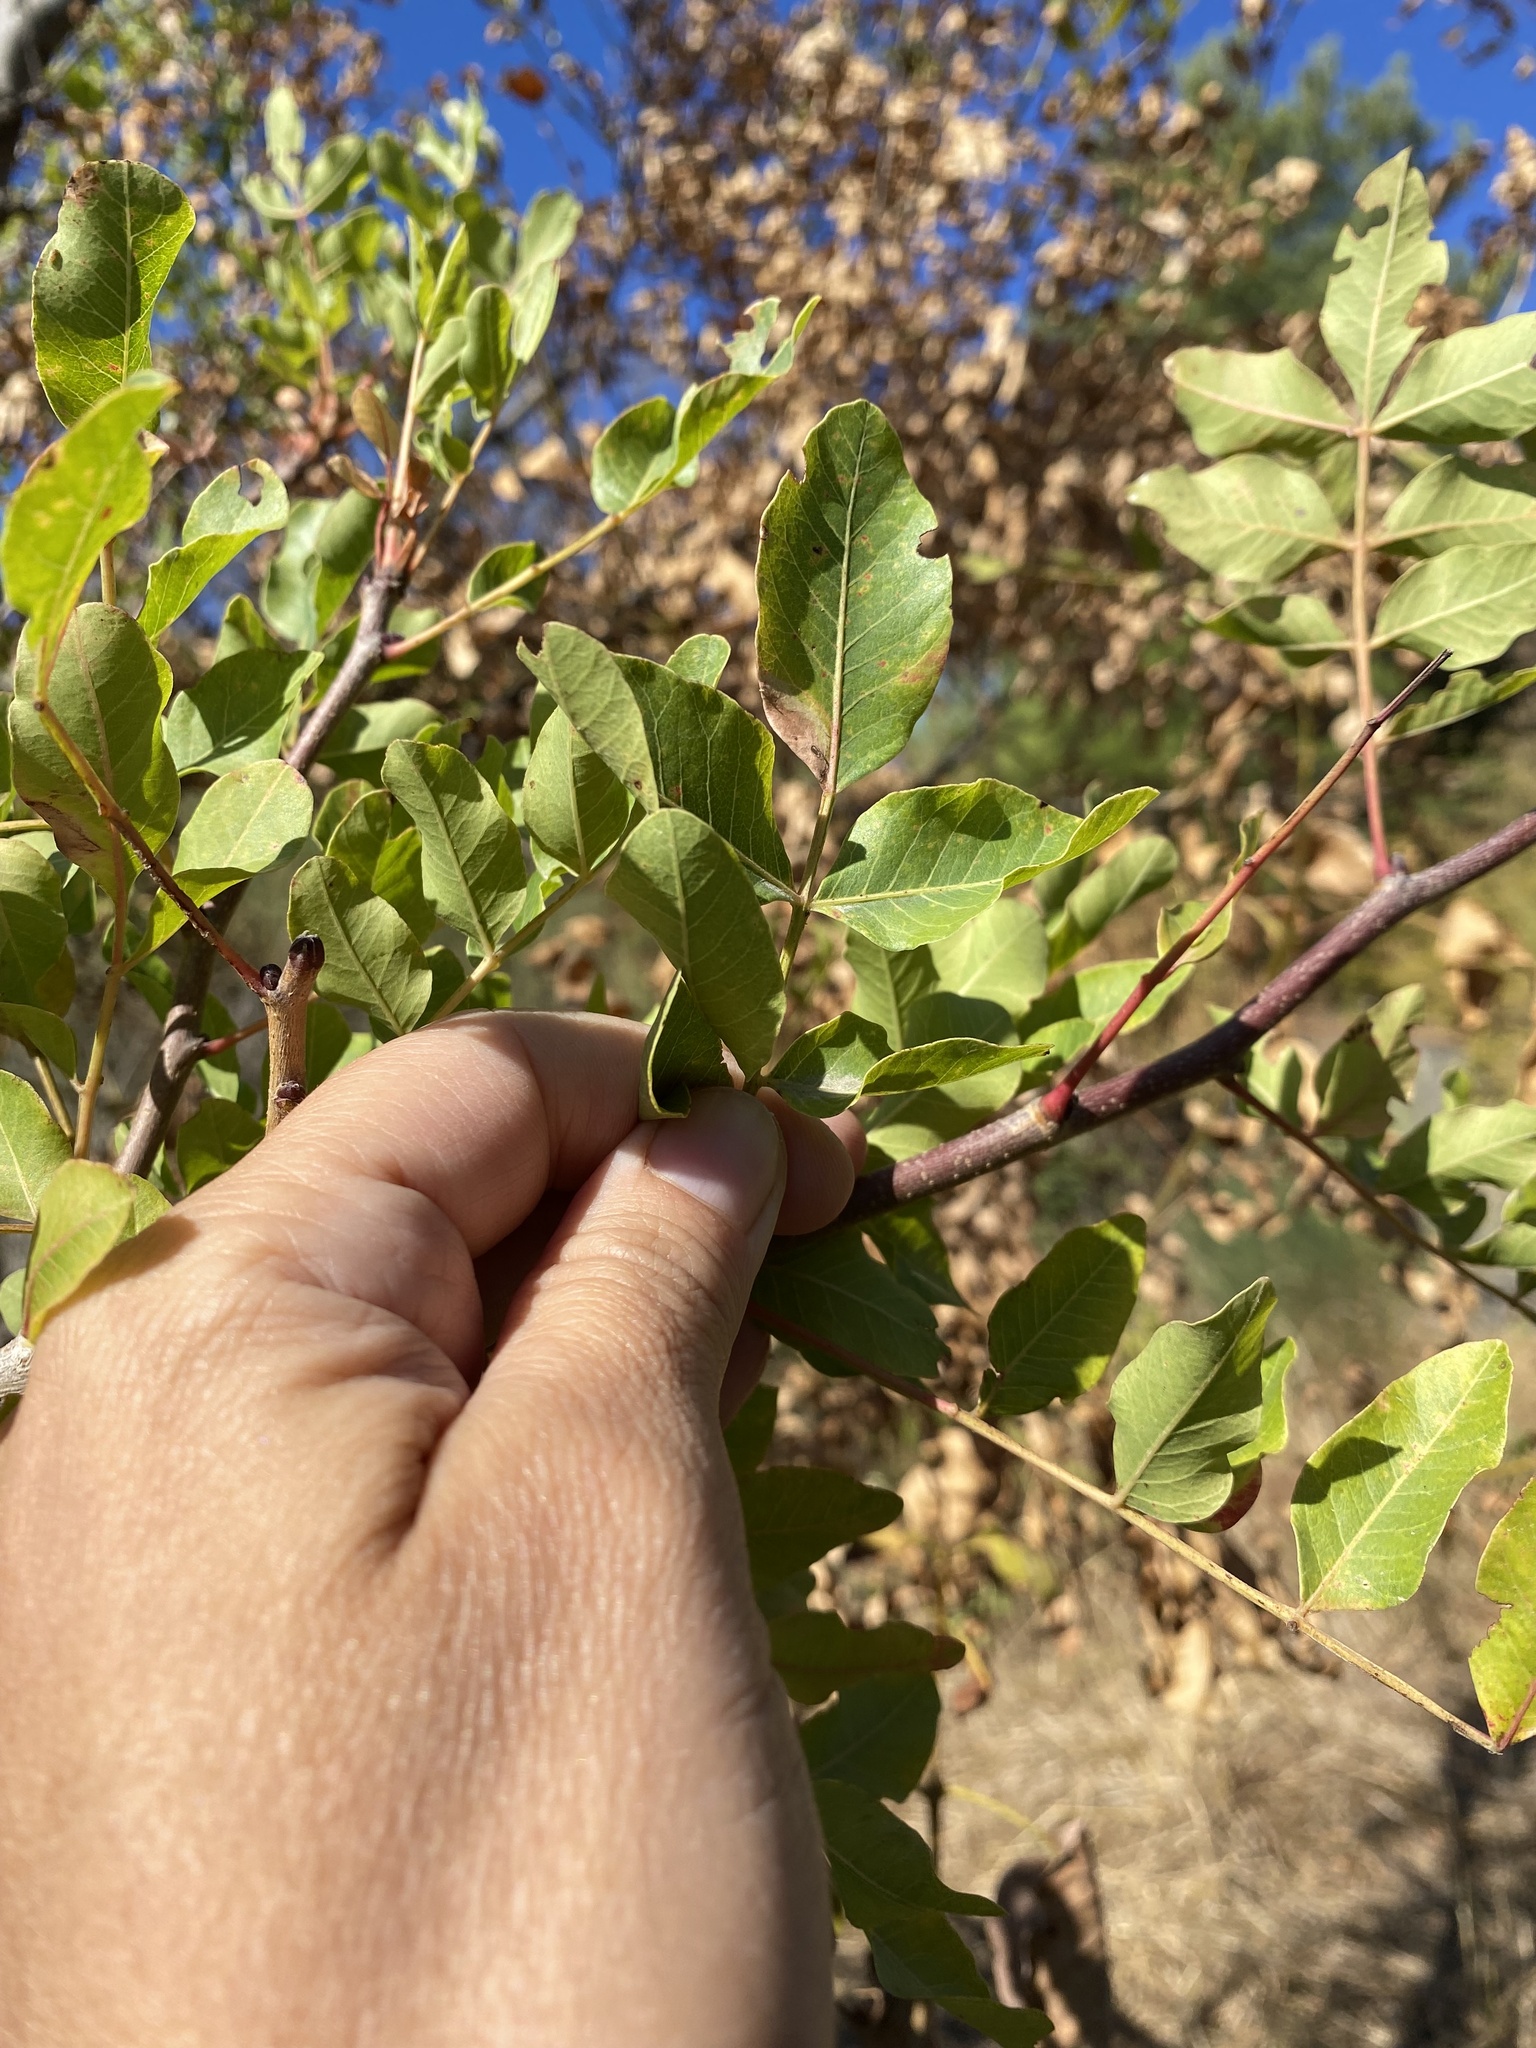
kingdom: Plantae
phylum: Tracheophyta
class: Magnoliopsida
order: Sapindales
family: Anacardiaceae
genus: Pistacia
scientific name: Pistacia atlantica
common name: Mt. atlas mastic tree
